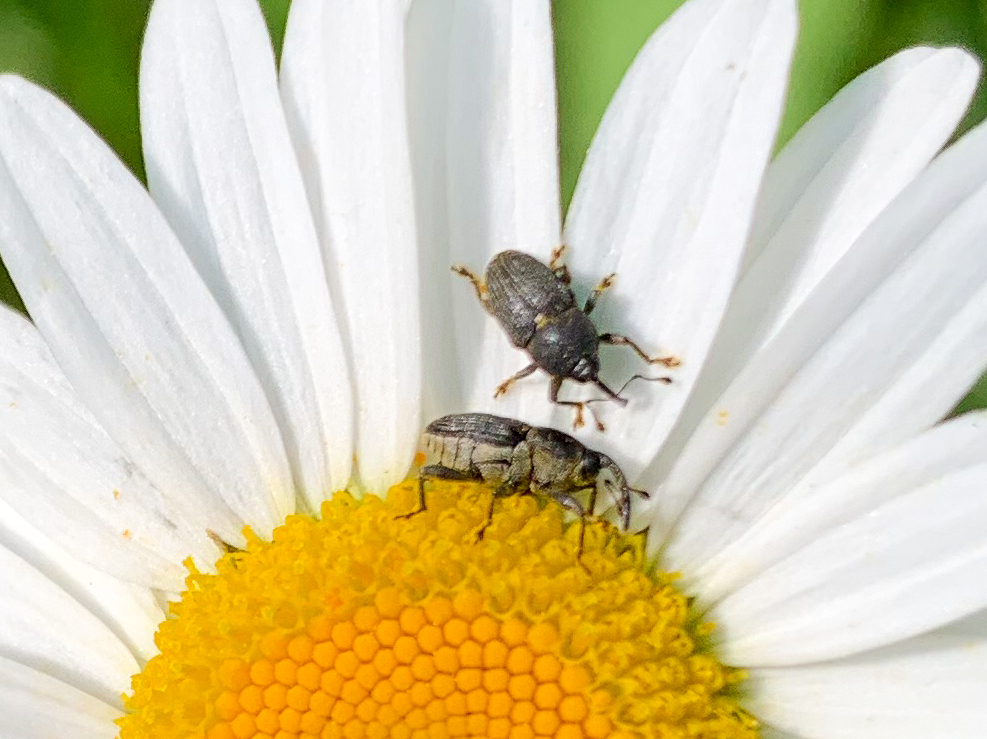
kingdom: Animalia
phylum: Arthropoda
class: Insecta
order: Coleoptera
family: Curculionidae
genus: Odontocorynus
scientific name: Odontocorynus salebrosus
